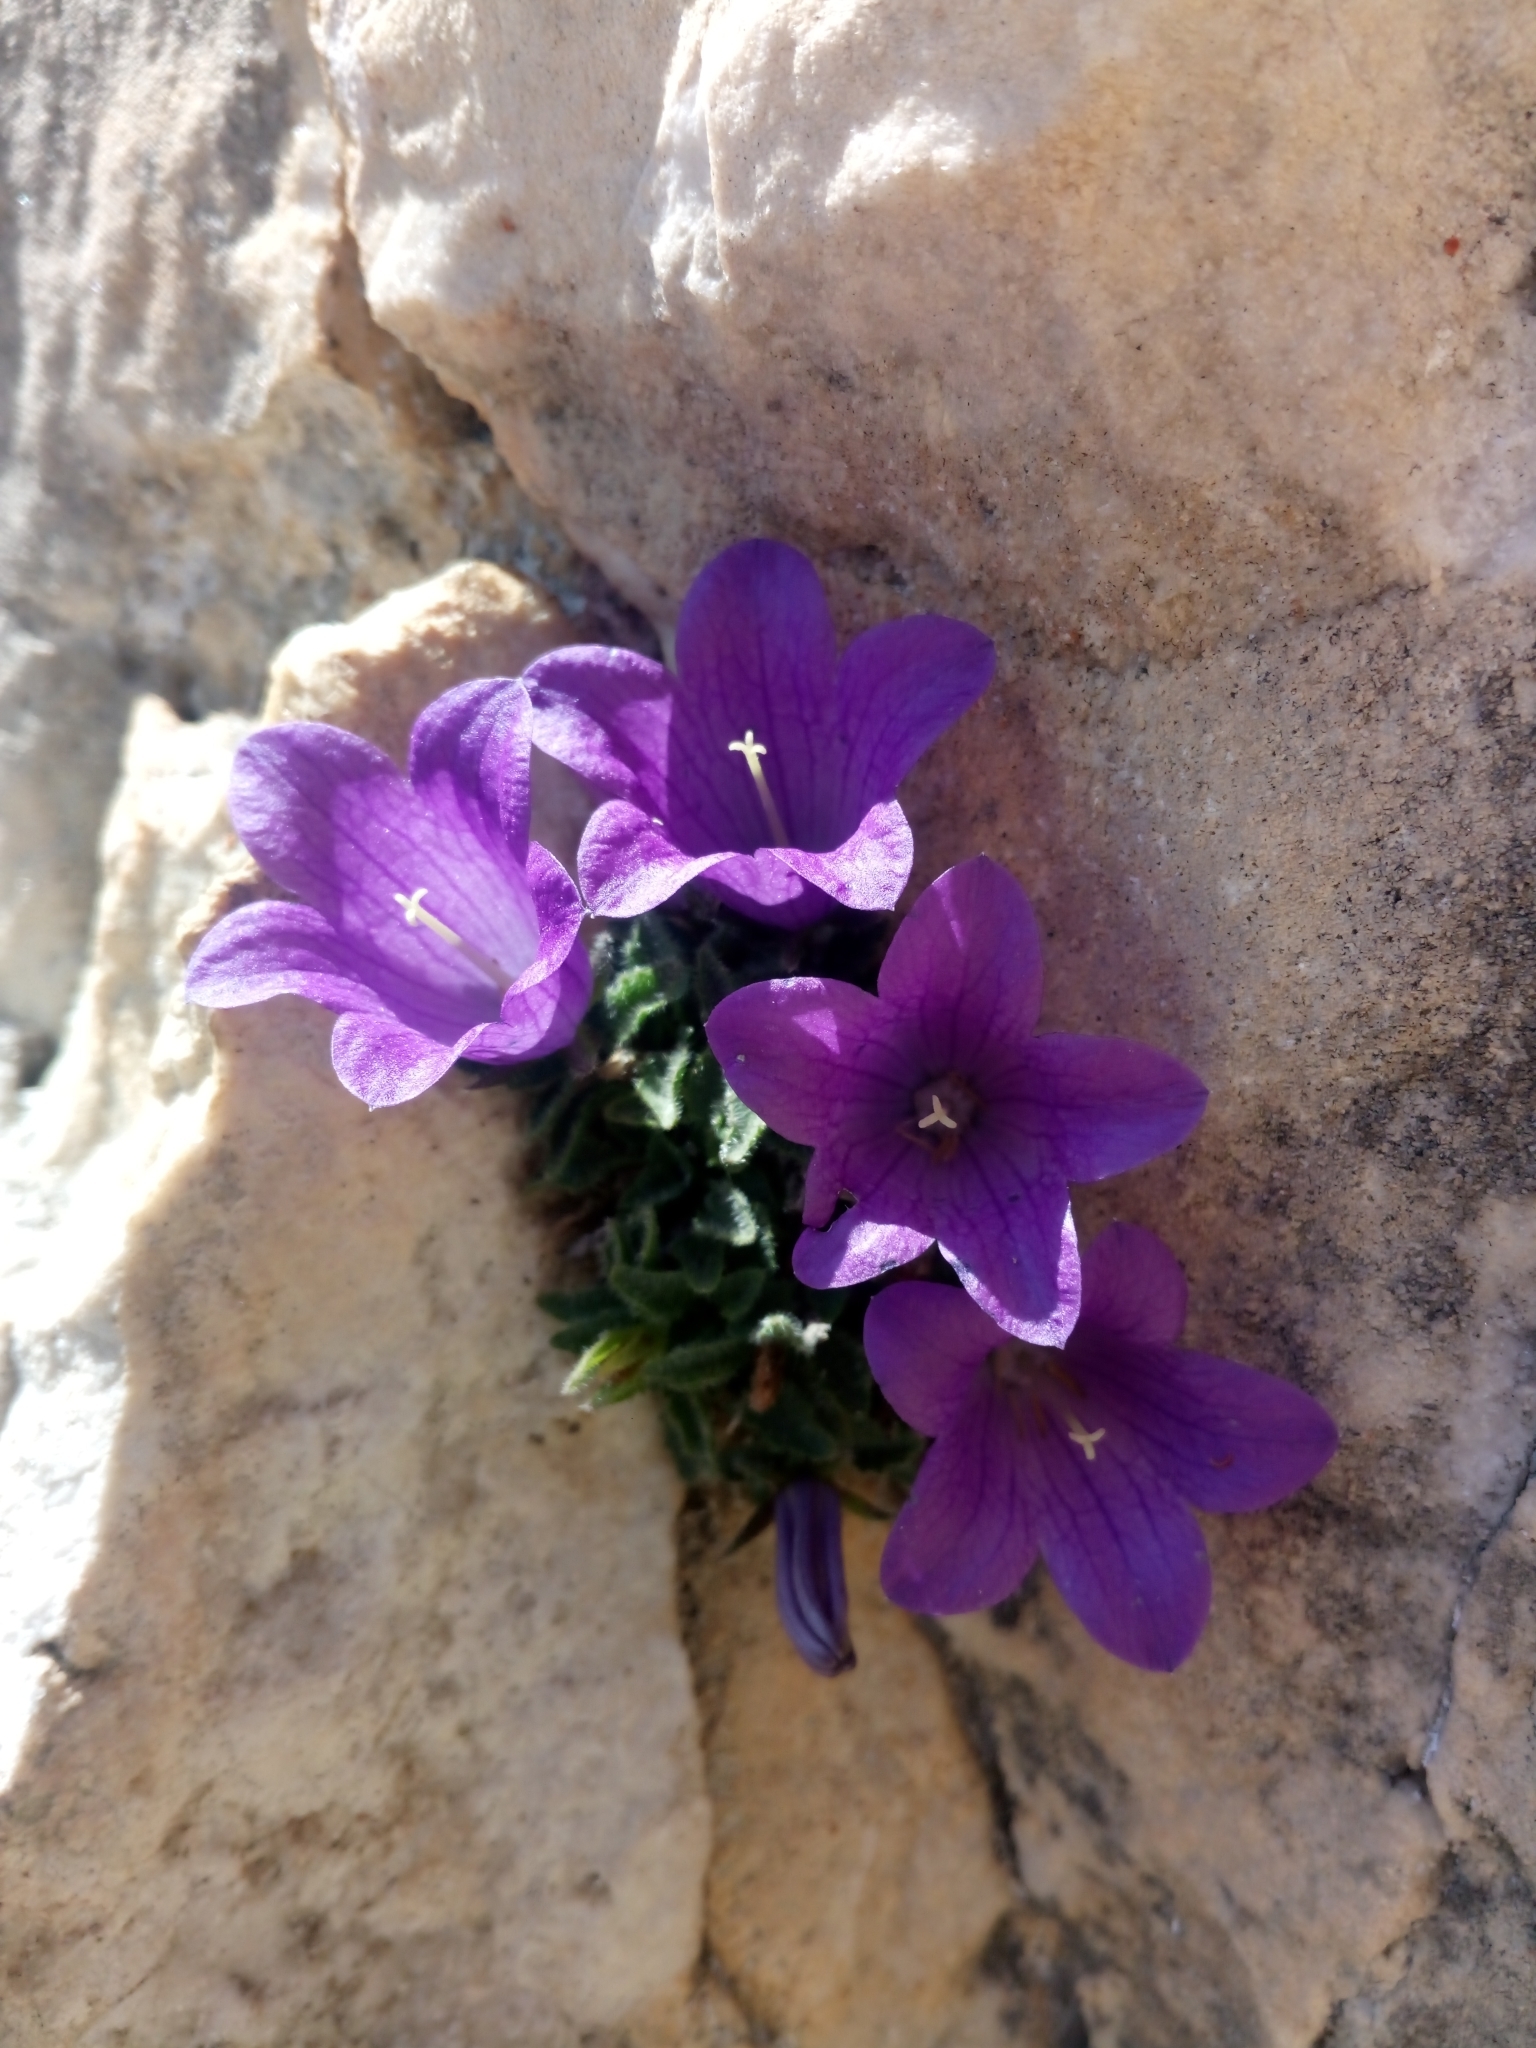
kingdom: Plantae
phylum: Tracheophyta
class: Magnoliopsida
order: Asterales
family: Campanulaceae
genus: Campanula
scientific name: Campanula morettiana
